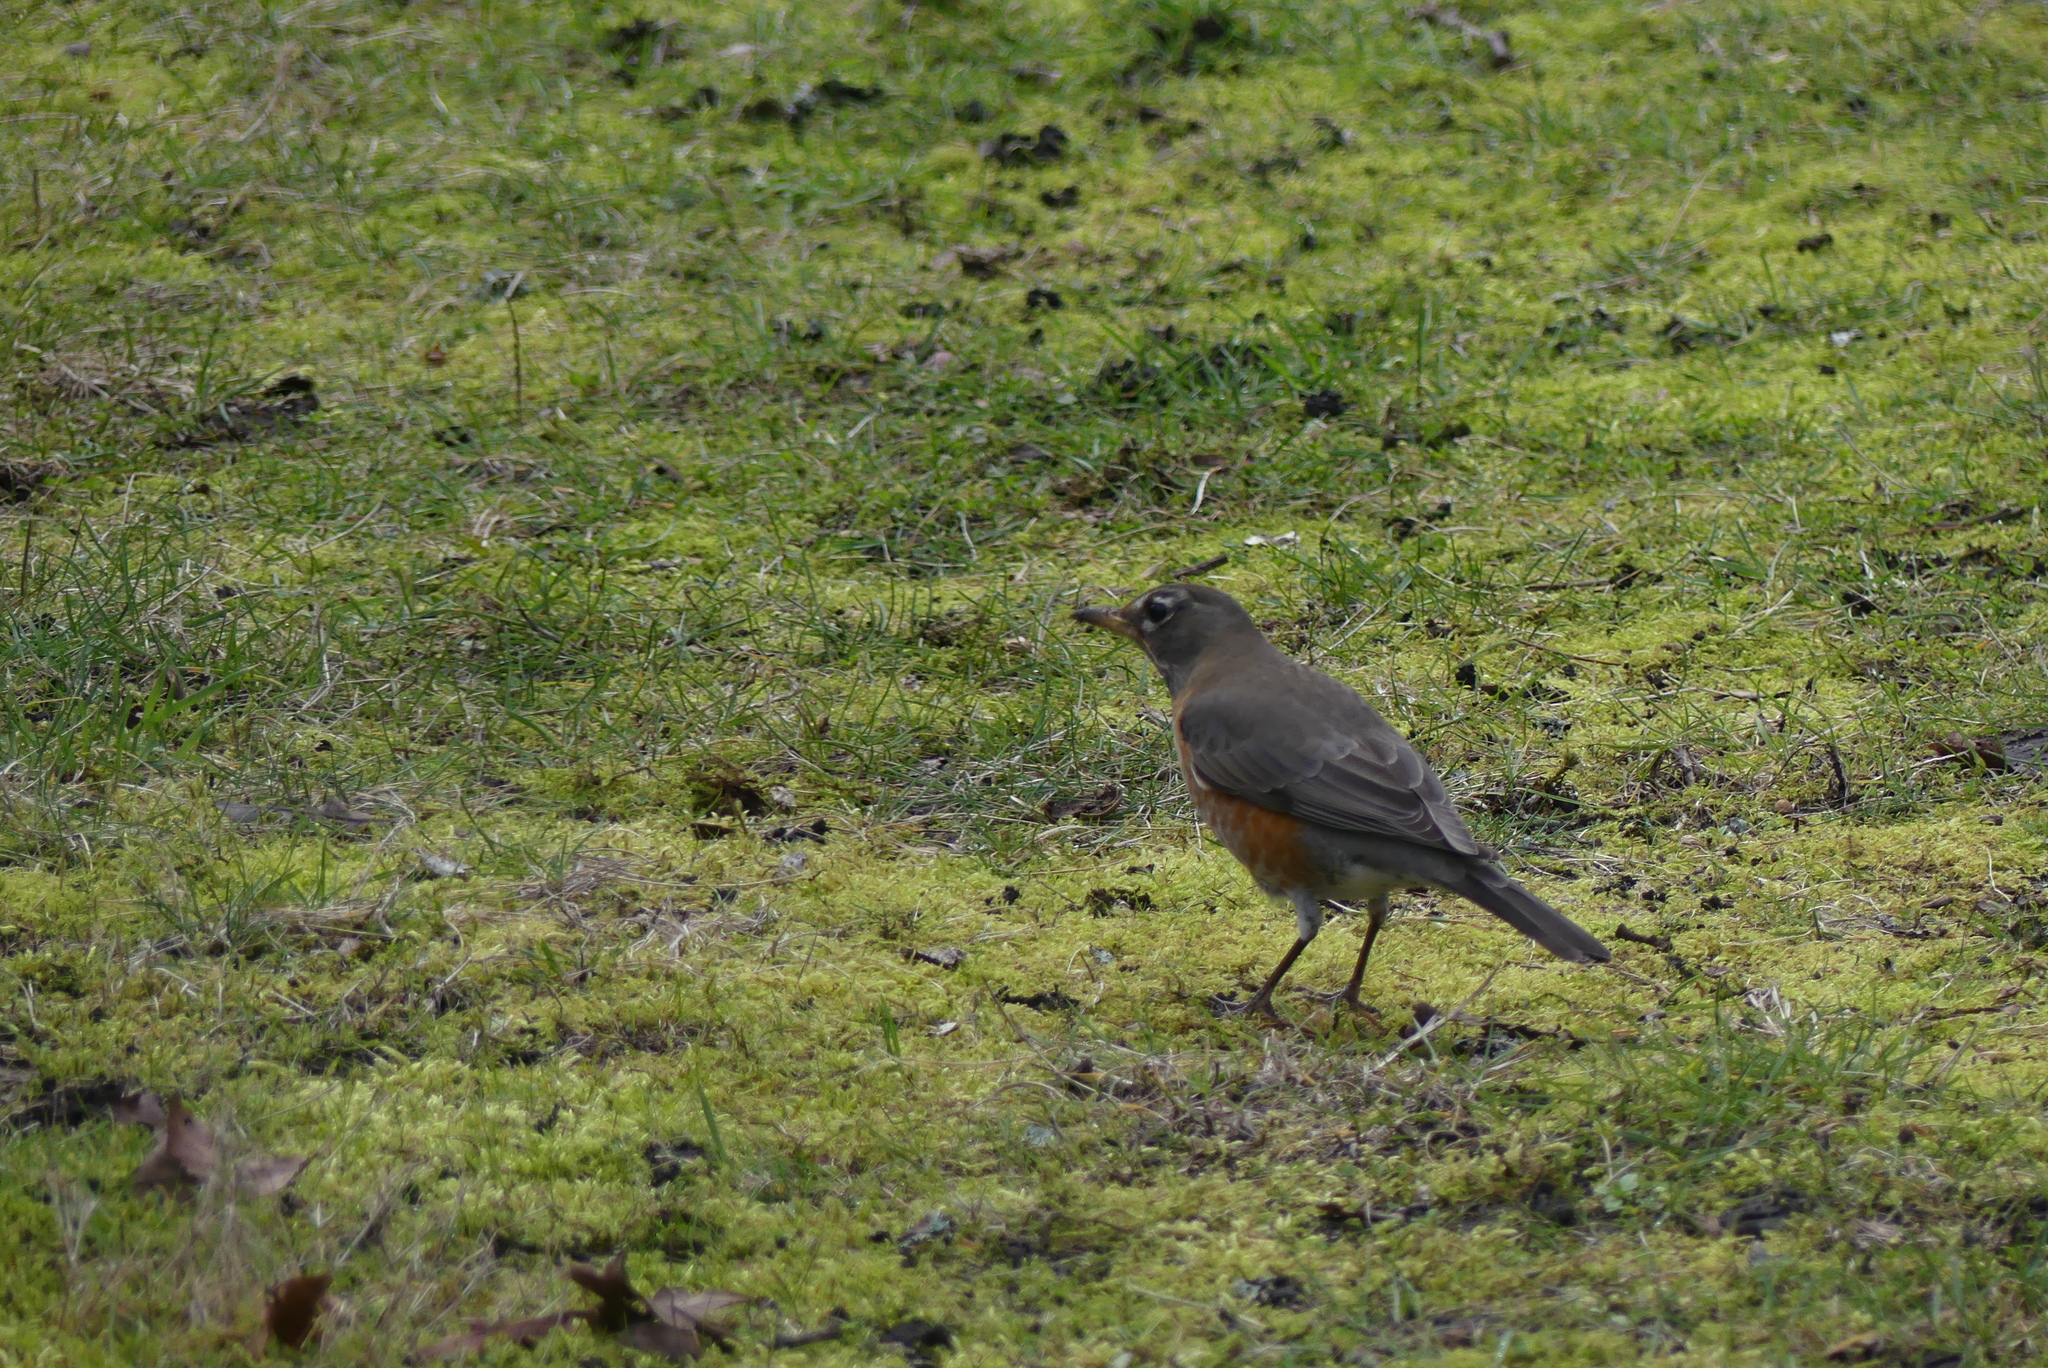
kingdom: Animalia
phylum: Chordata
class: Aves
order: Passeriformes
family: Turdidae
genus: Turdus
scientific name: Turdus migratorius
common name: American robin
